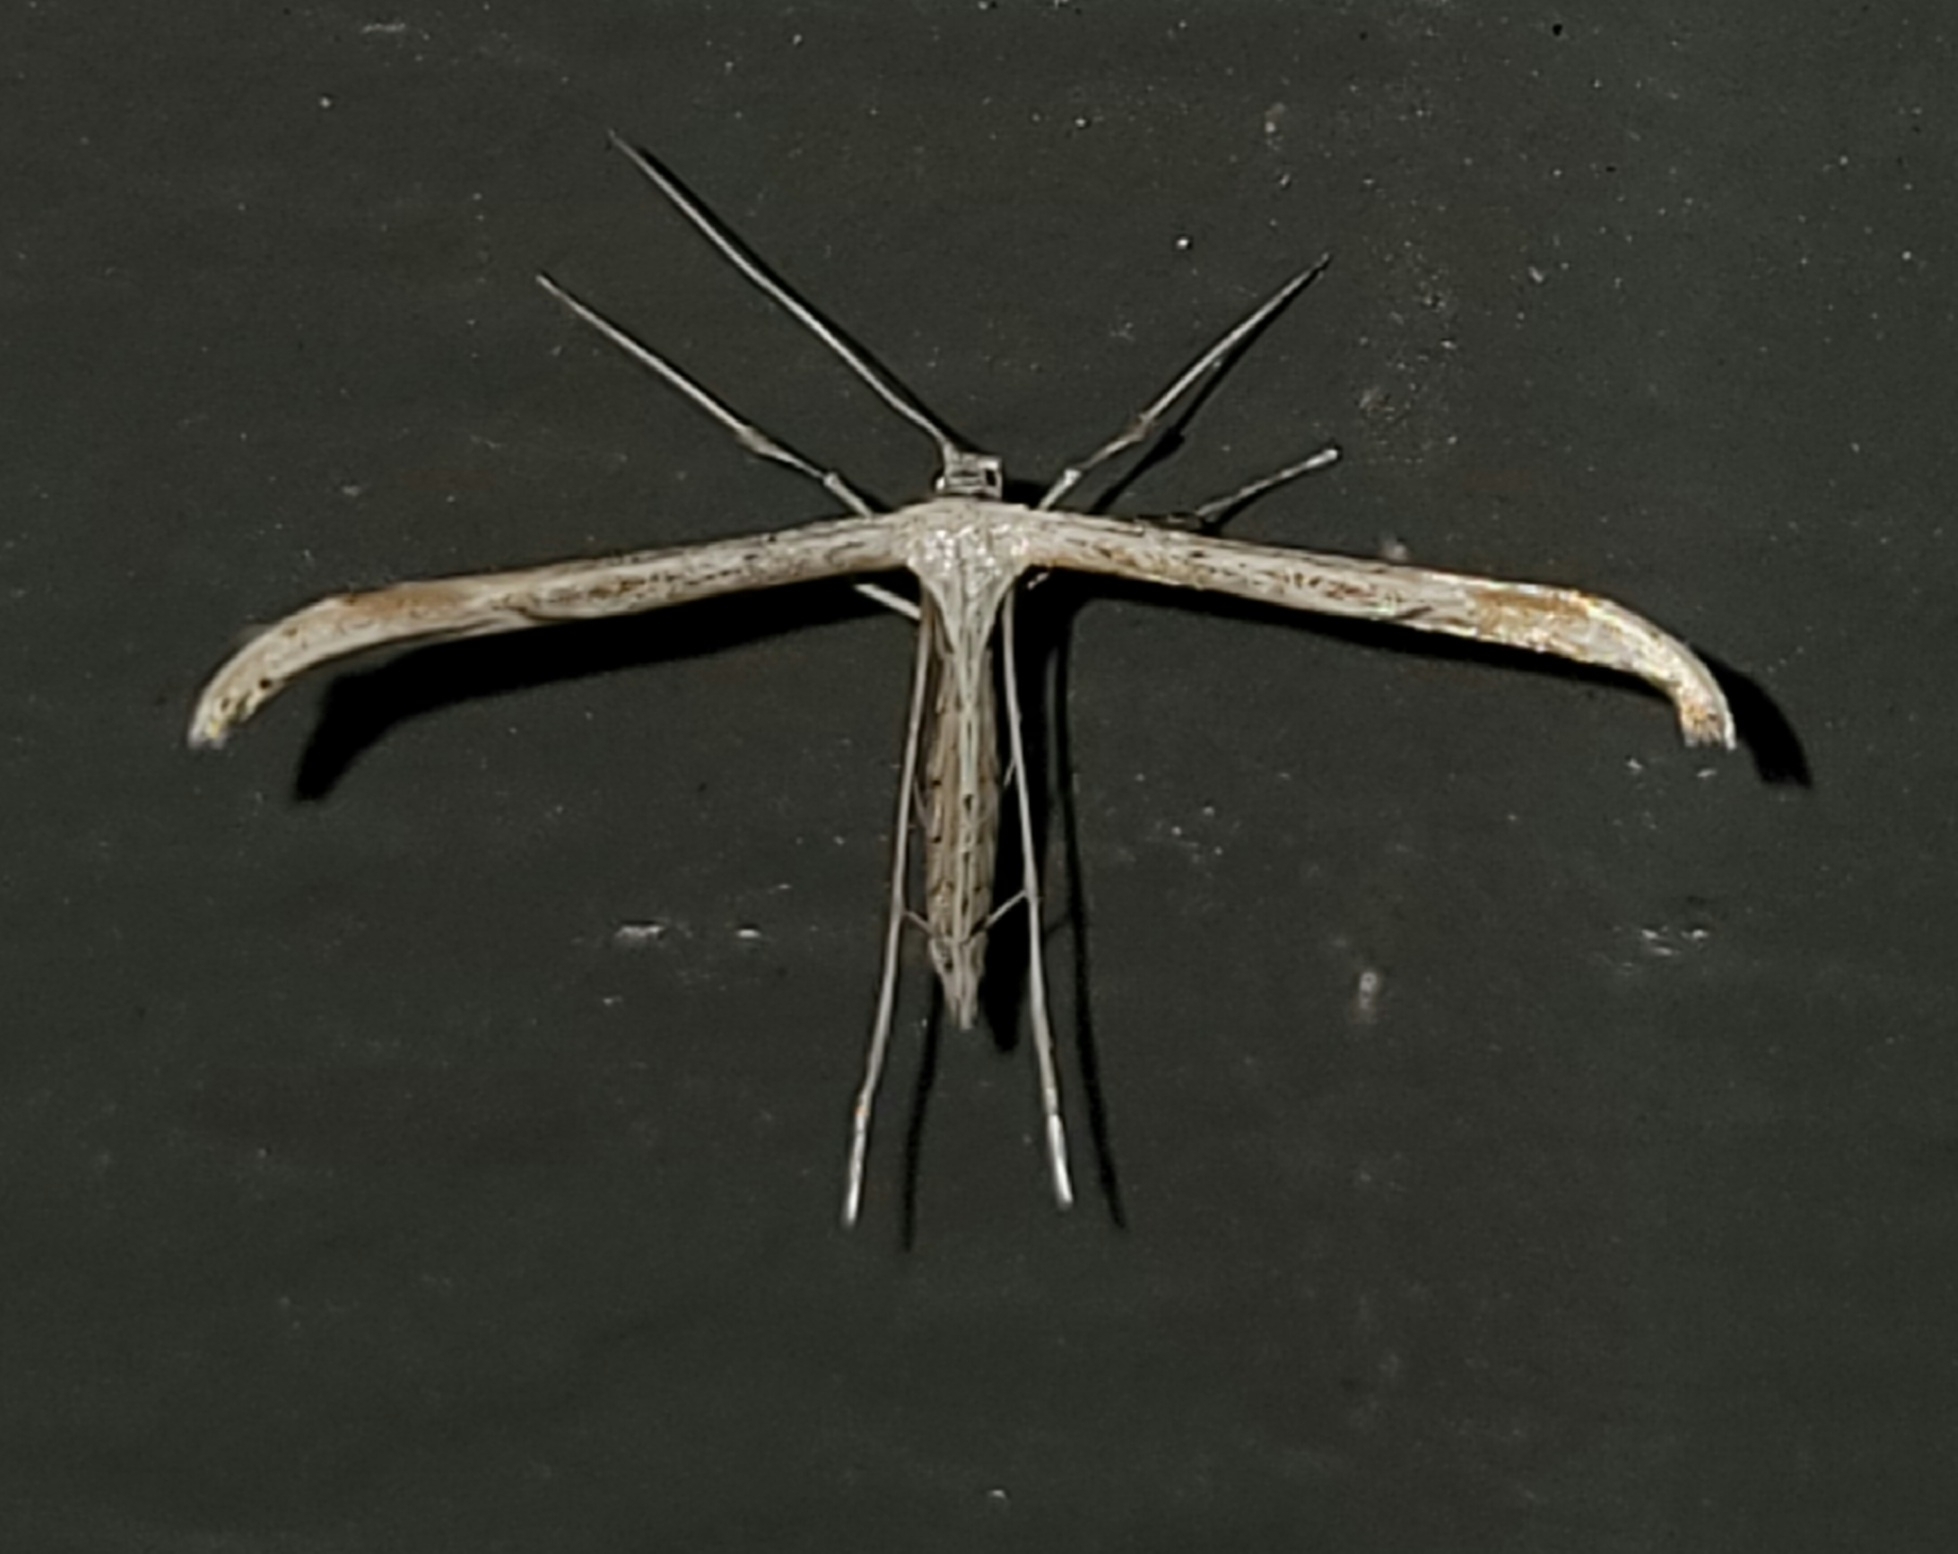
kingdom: Animalia
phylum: Arthropoda
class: Insecta
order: Lepidoptera
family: Pterophoridae
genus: Emmelina
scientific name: Emmelina monodactyla
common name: Common plume
